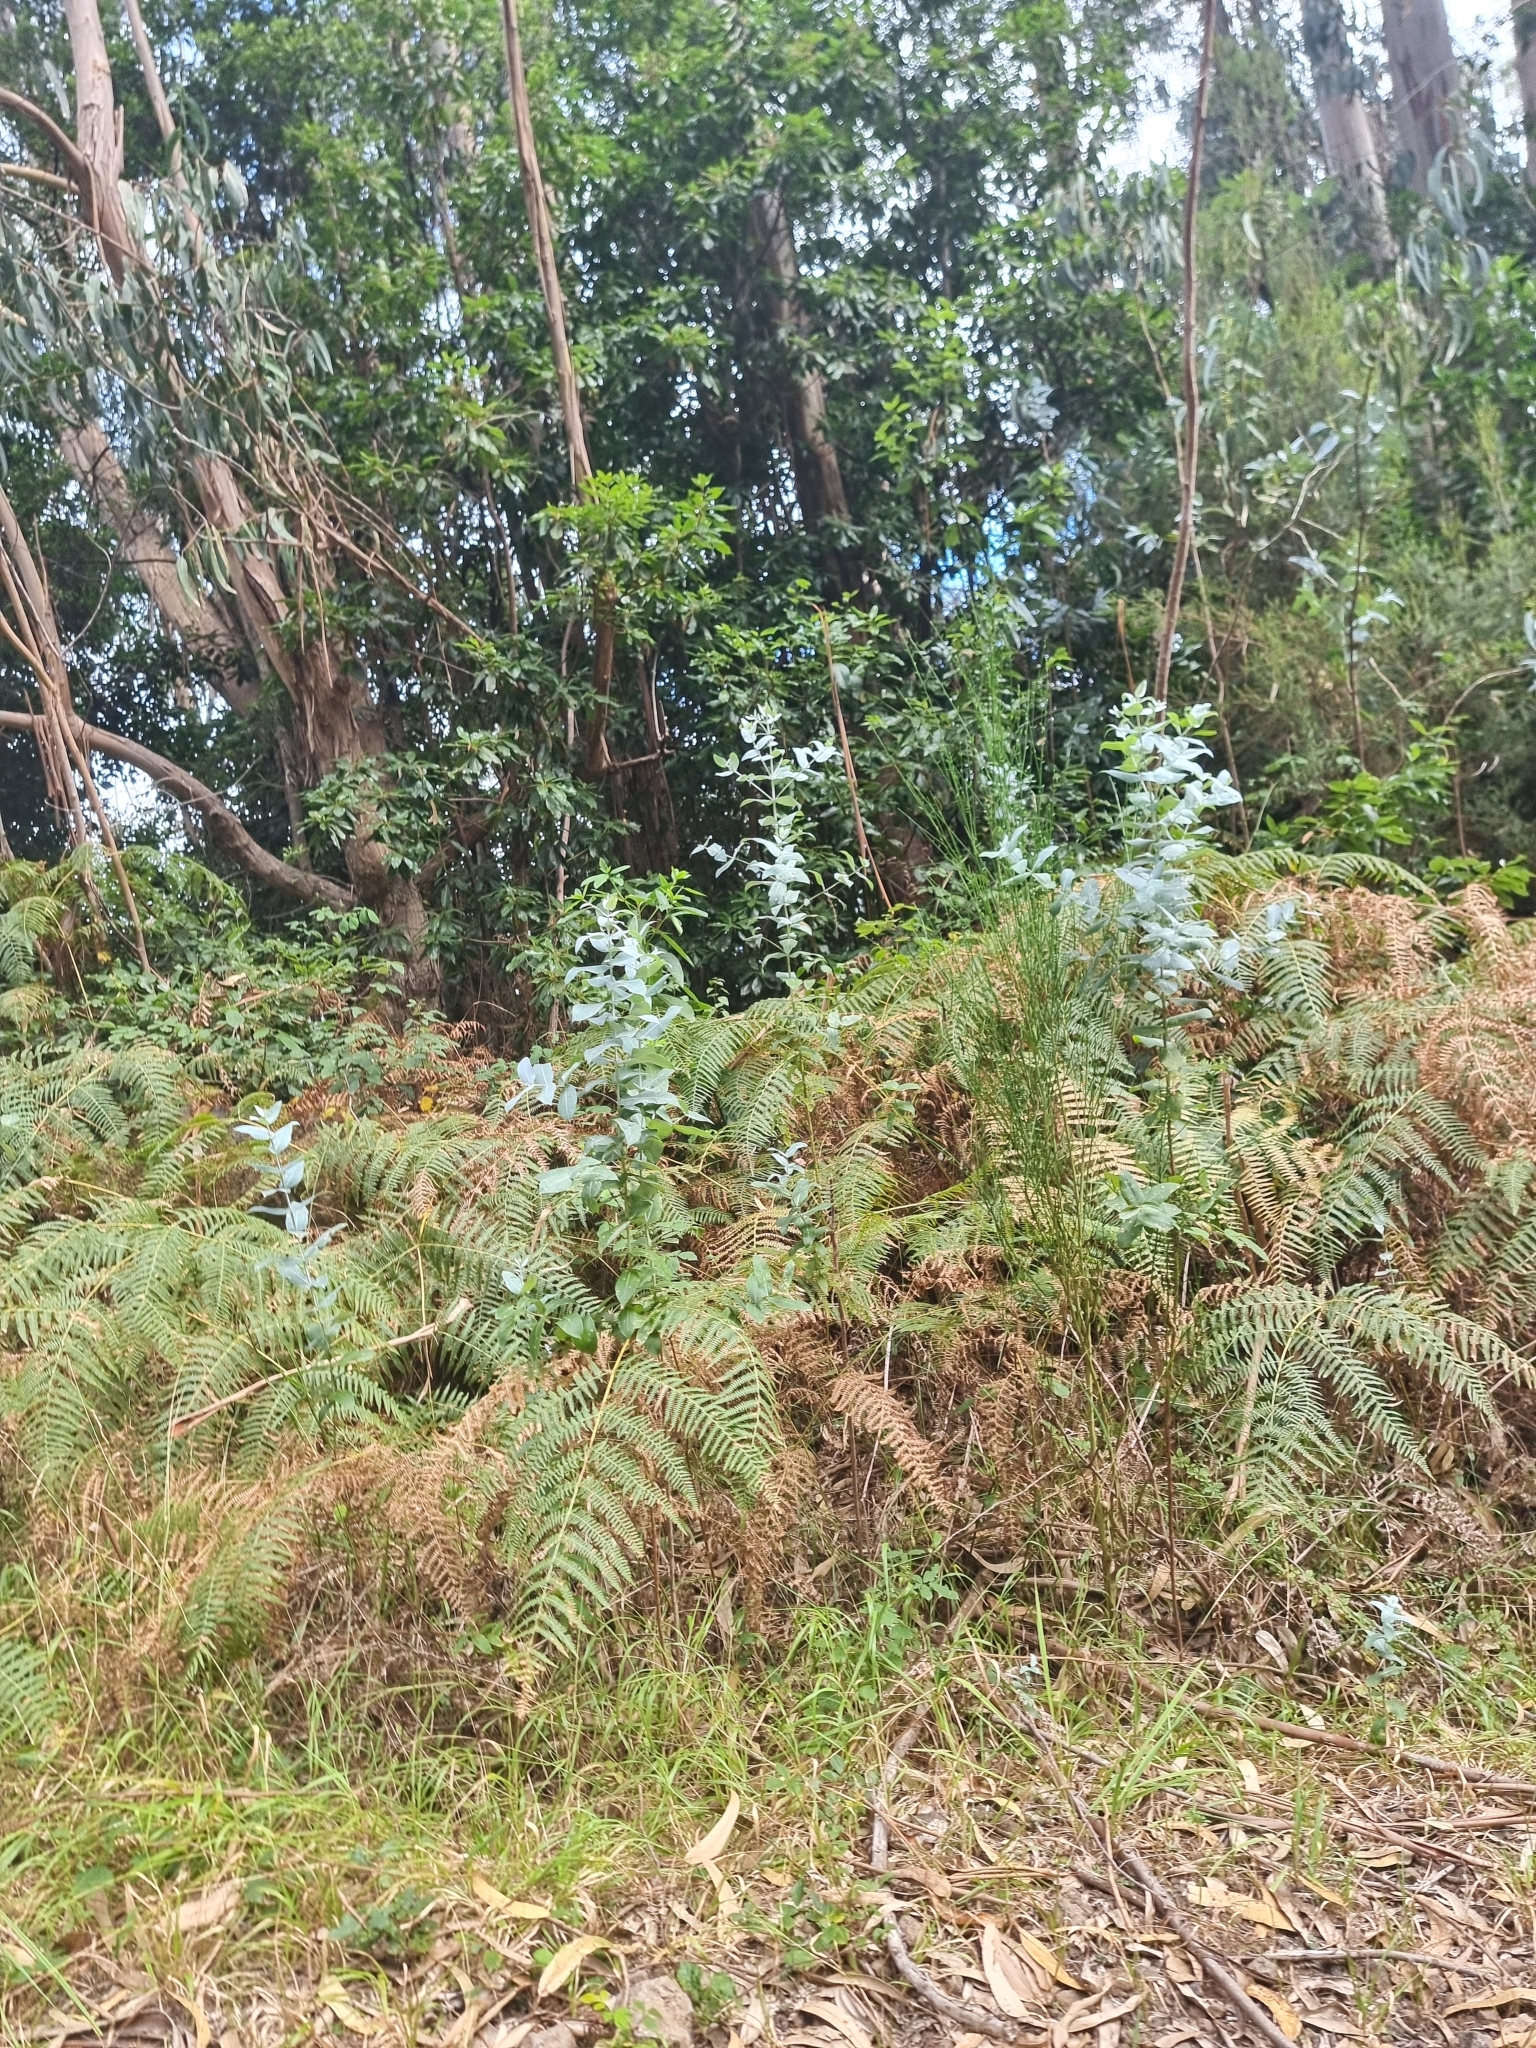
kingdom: Plantae
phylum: Tracheophyta
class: Polypodiopsida
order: Polypodiales
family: Dennstaedtiaceae
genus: Pteridium
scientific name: Pteridium aquilinum
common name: Bracken
